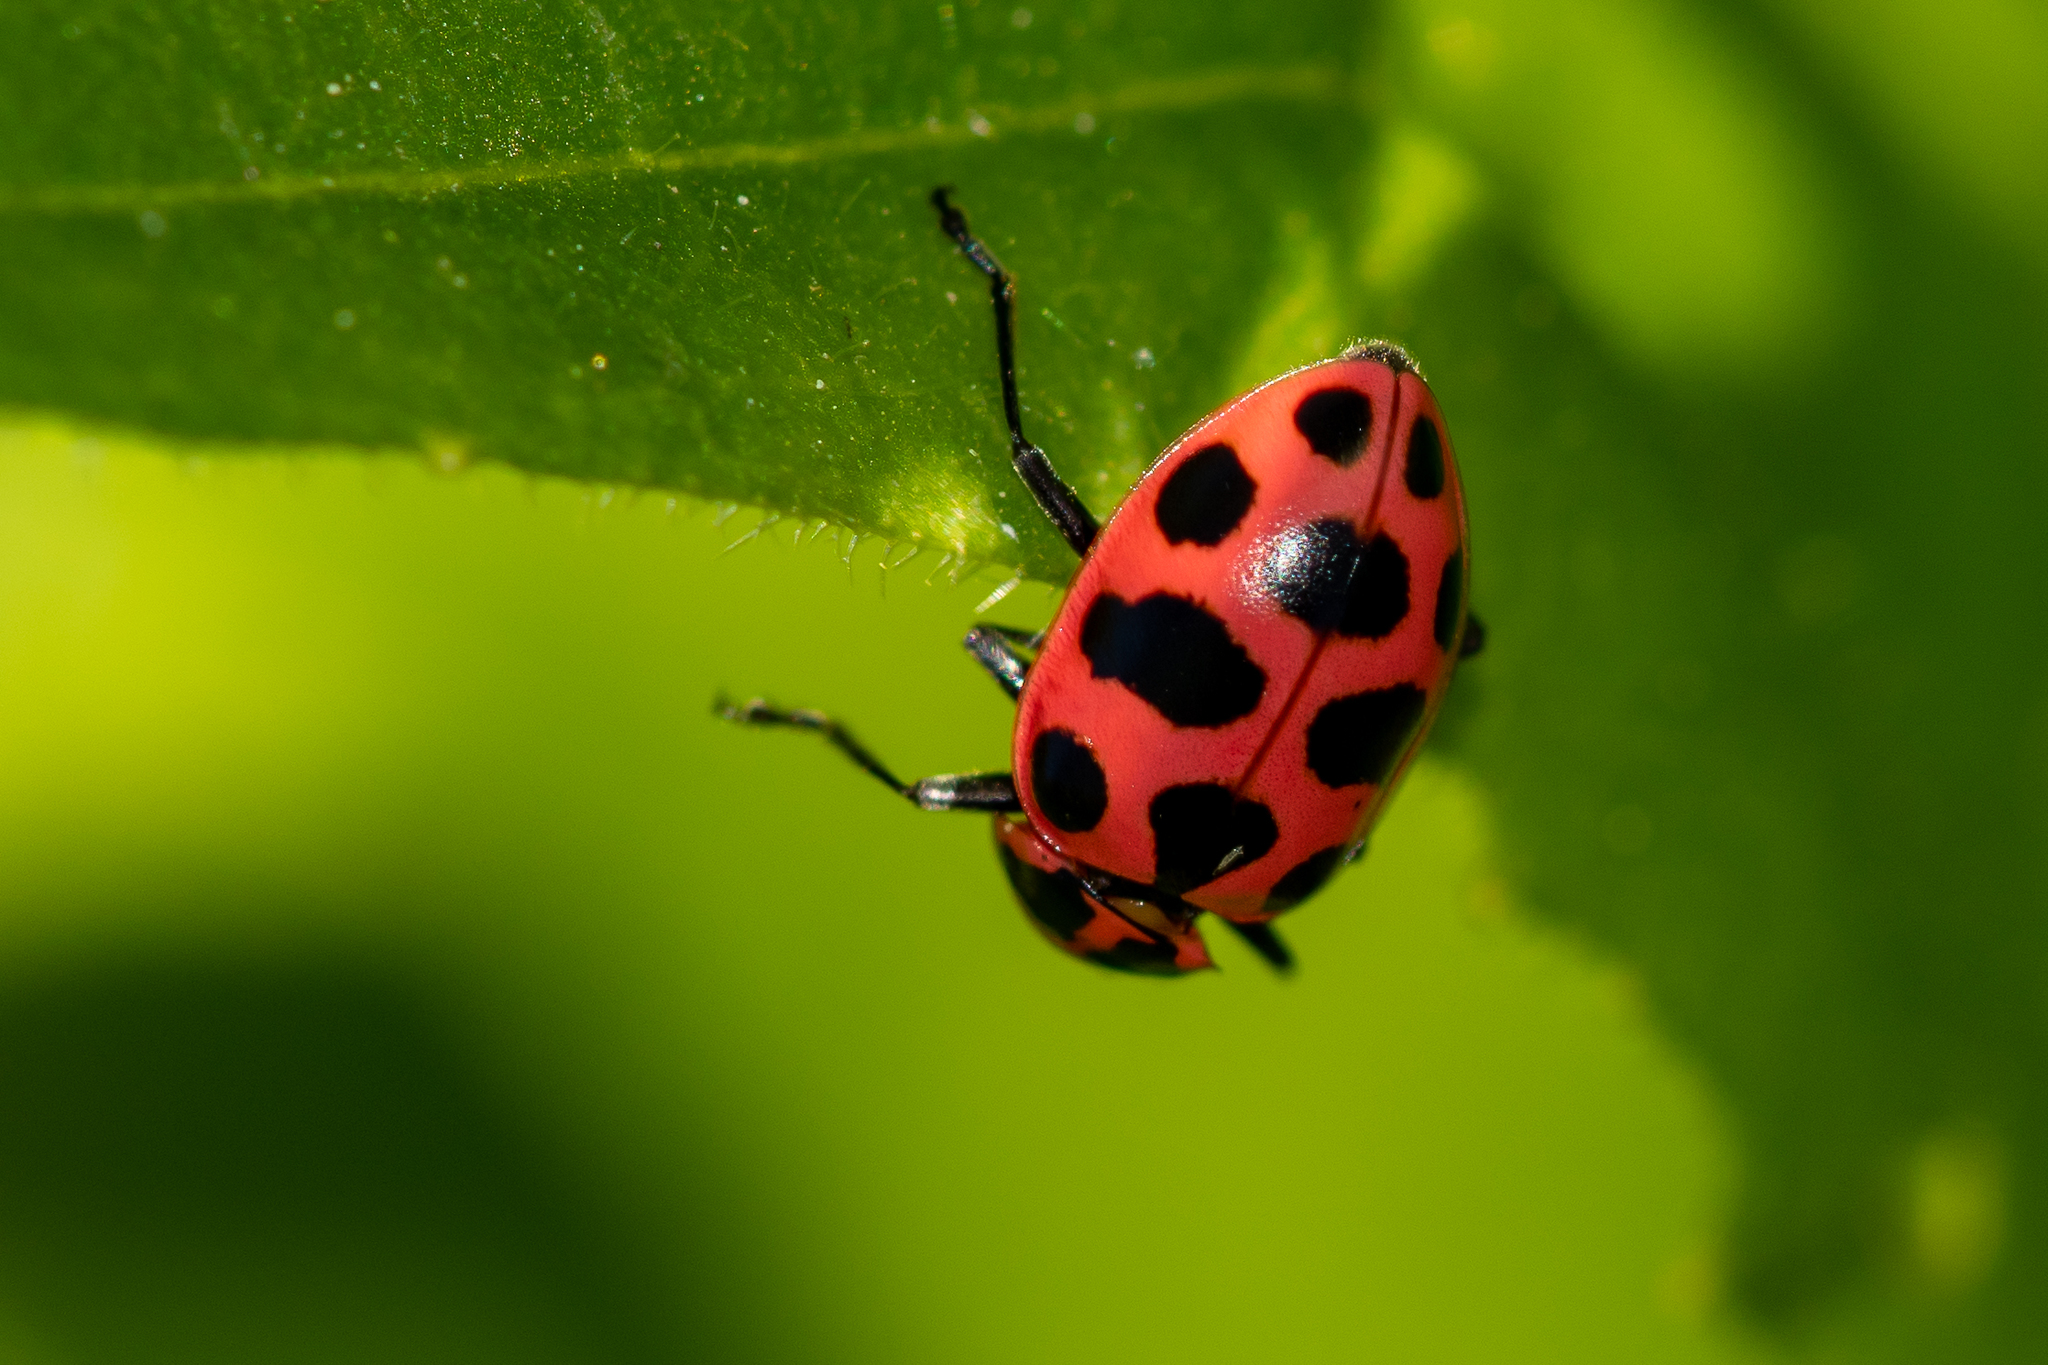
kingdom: Animalia
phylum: Arthropoda
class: Insecta
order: Coleoptera
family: Coccinellidae
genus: Coleomegilla
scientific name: Coleomegilla maculata
